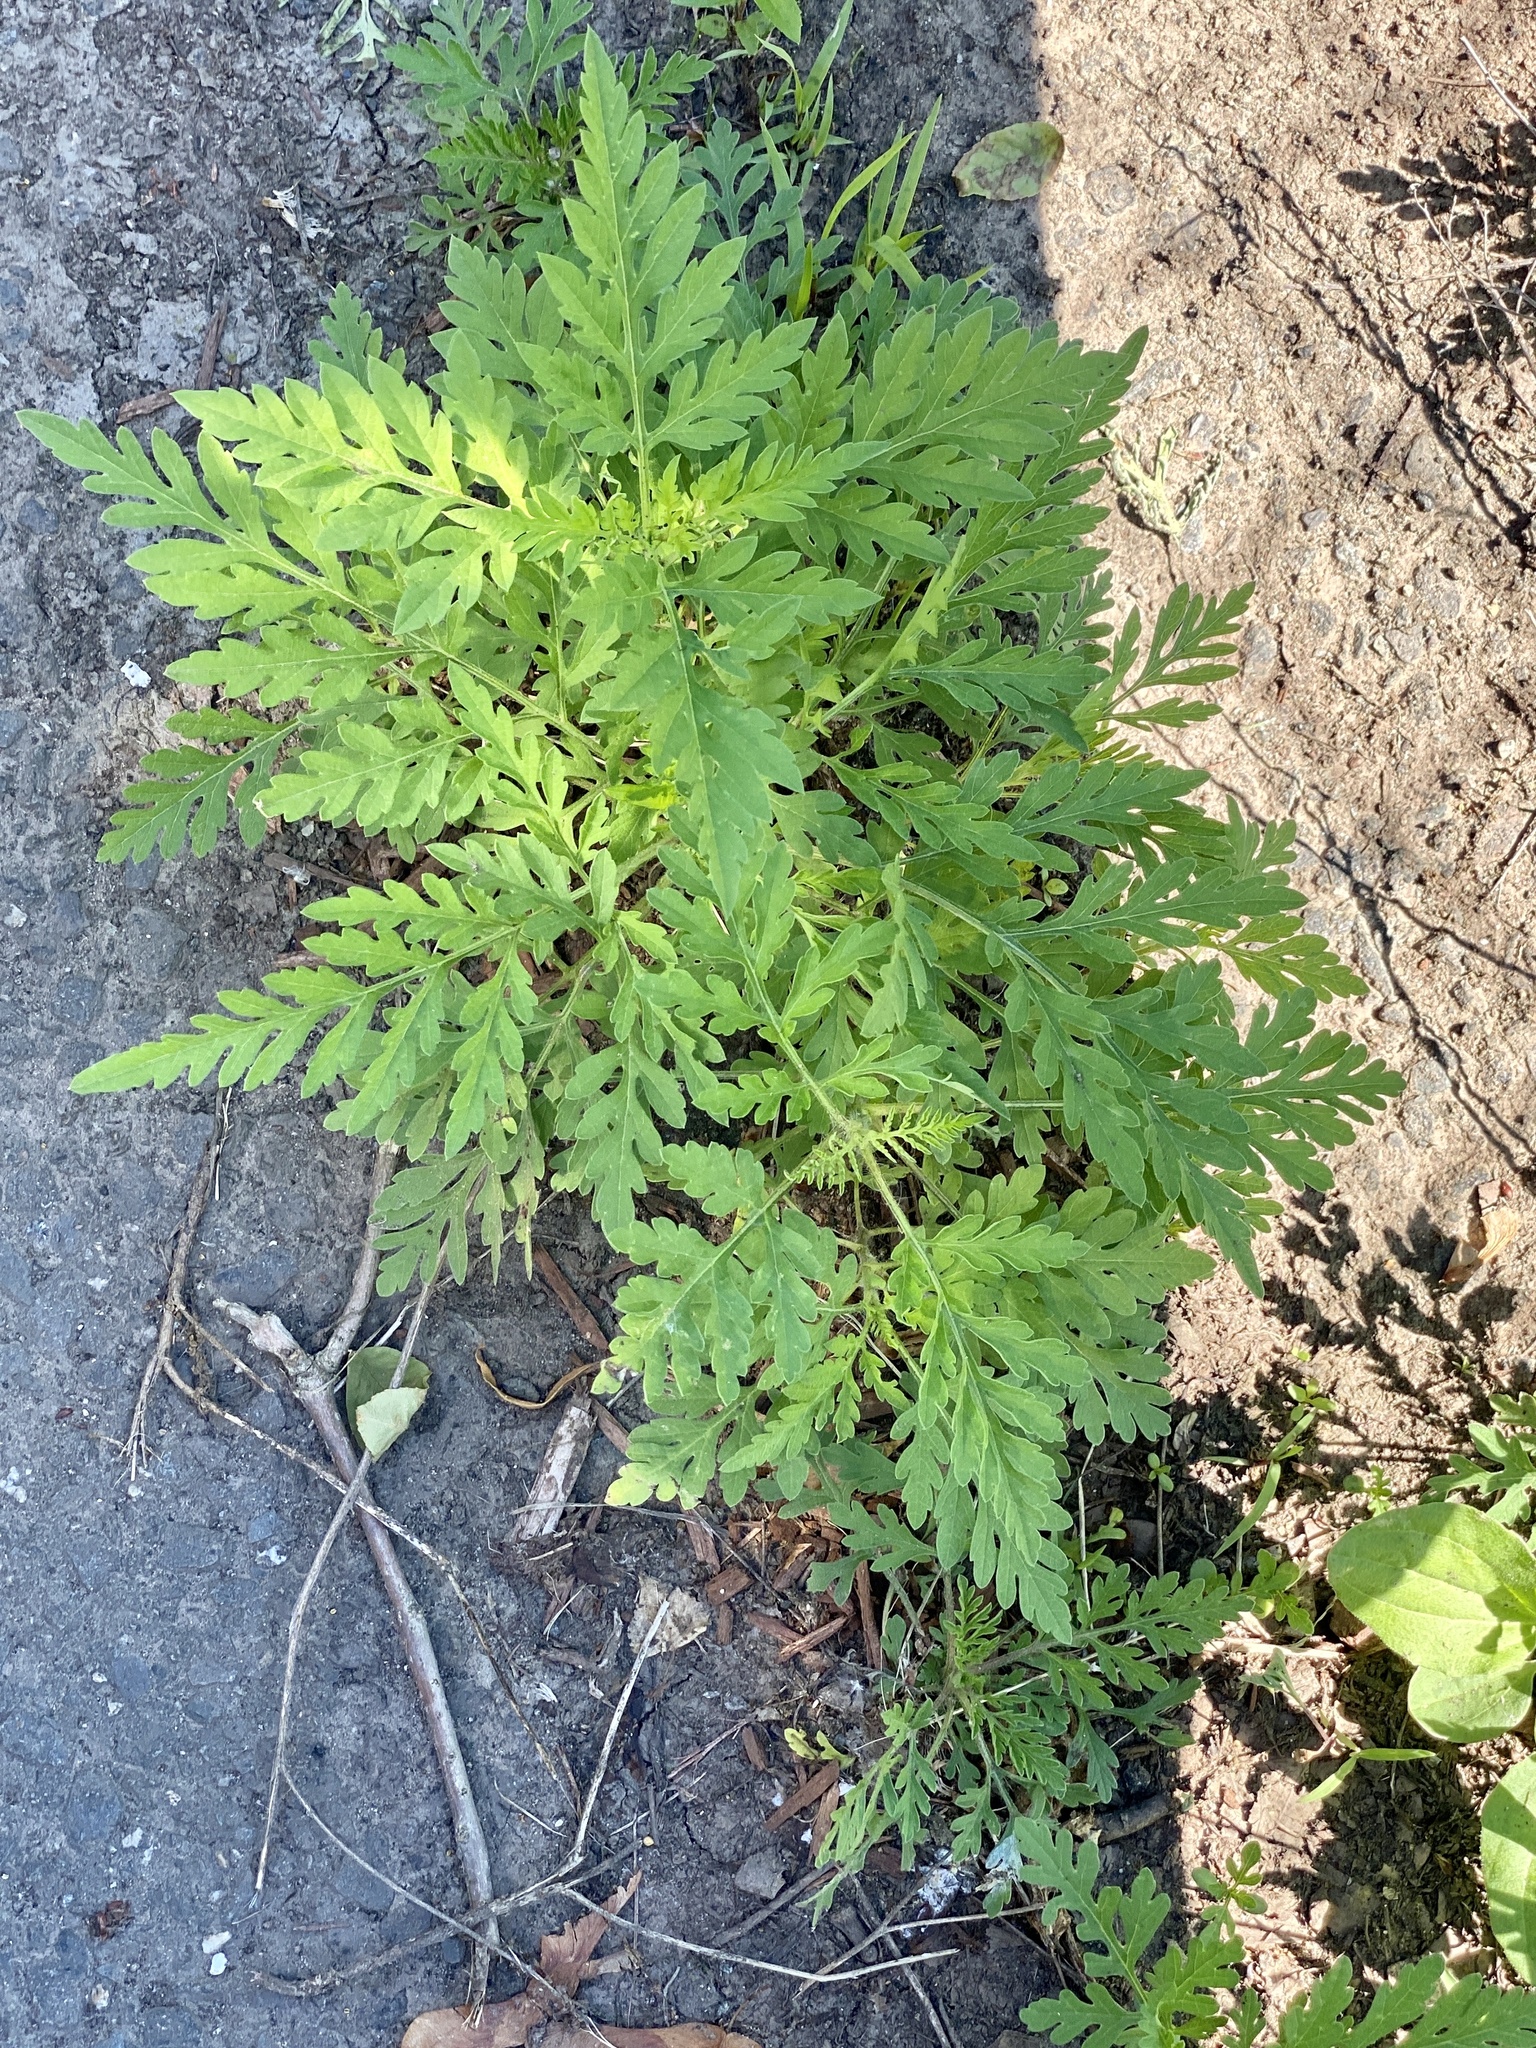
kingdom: Plantae
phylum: Tracheophyta
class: Magnoliopsida
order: Asterales
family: Asteraceae
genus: Ambrosia
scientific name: Ambrosia artemisiifolia
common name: Annual ragweed
